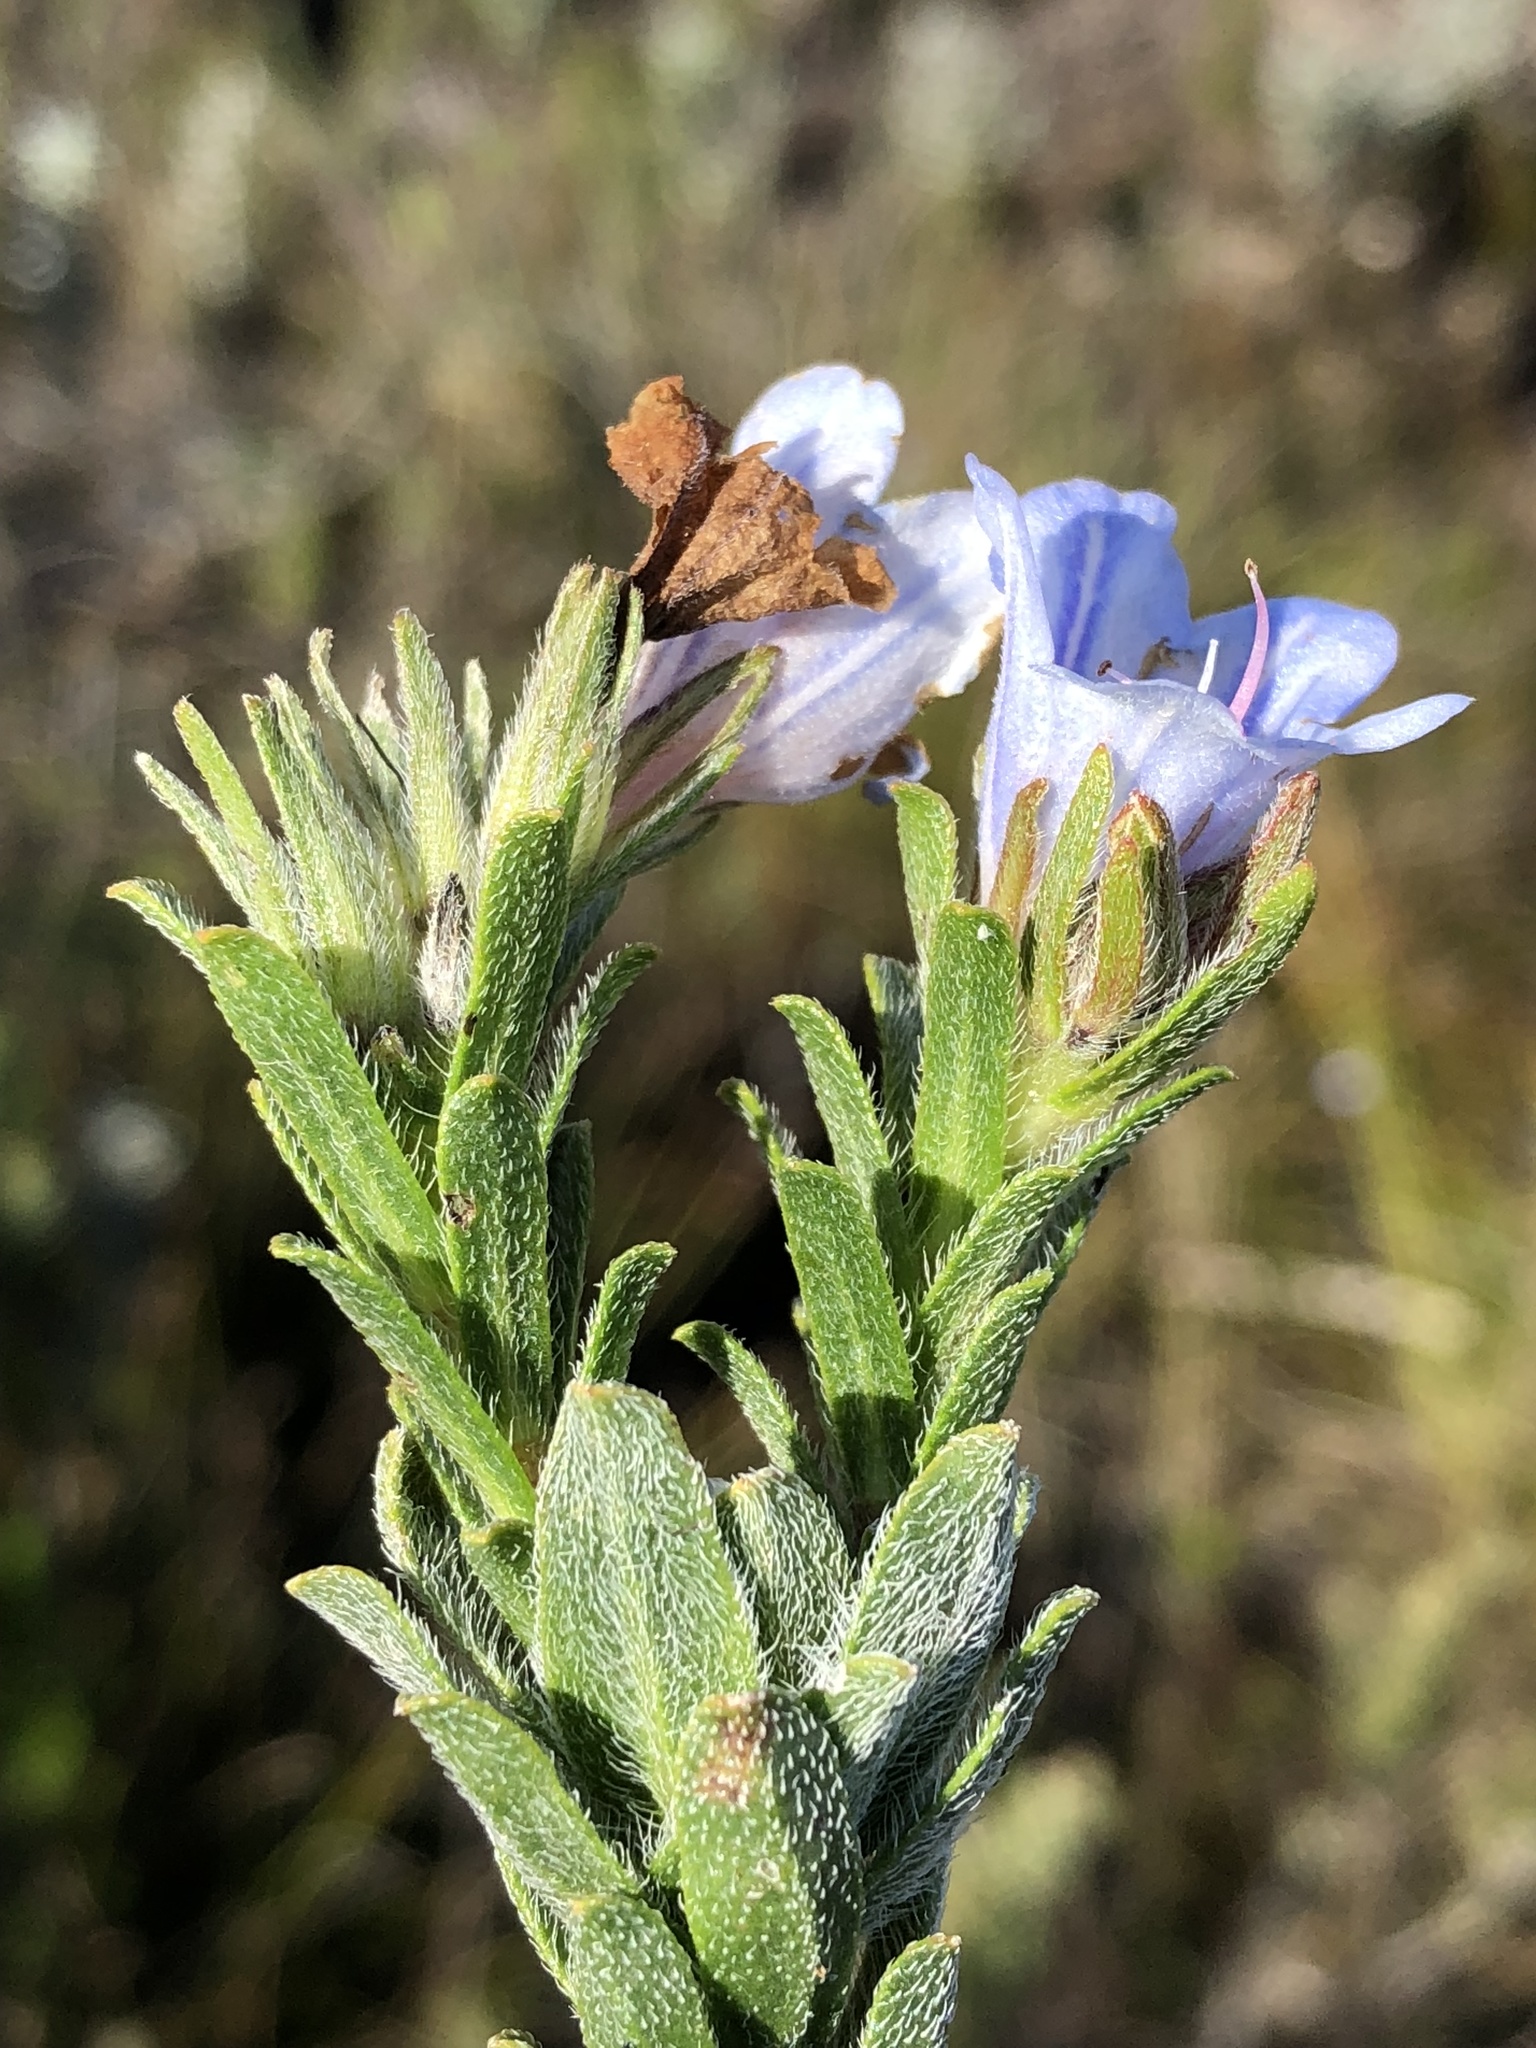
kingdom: Plantae
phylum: Tracheophyta
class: Magnoliopsida
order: Boraginales
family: Boraginaceae
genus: Lobostemon
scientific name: Lobostemon fruticosus
